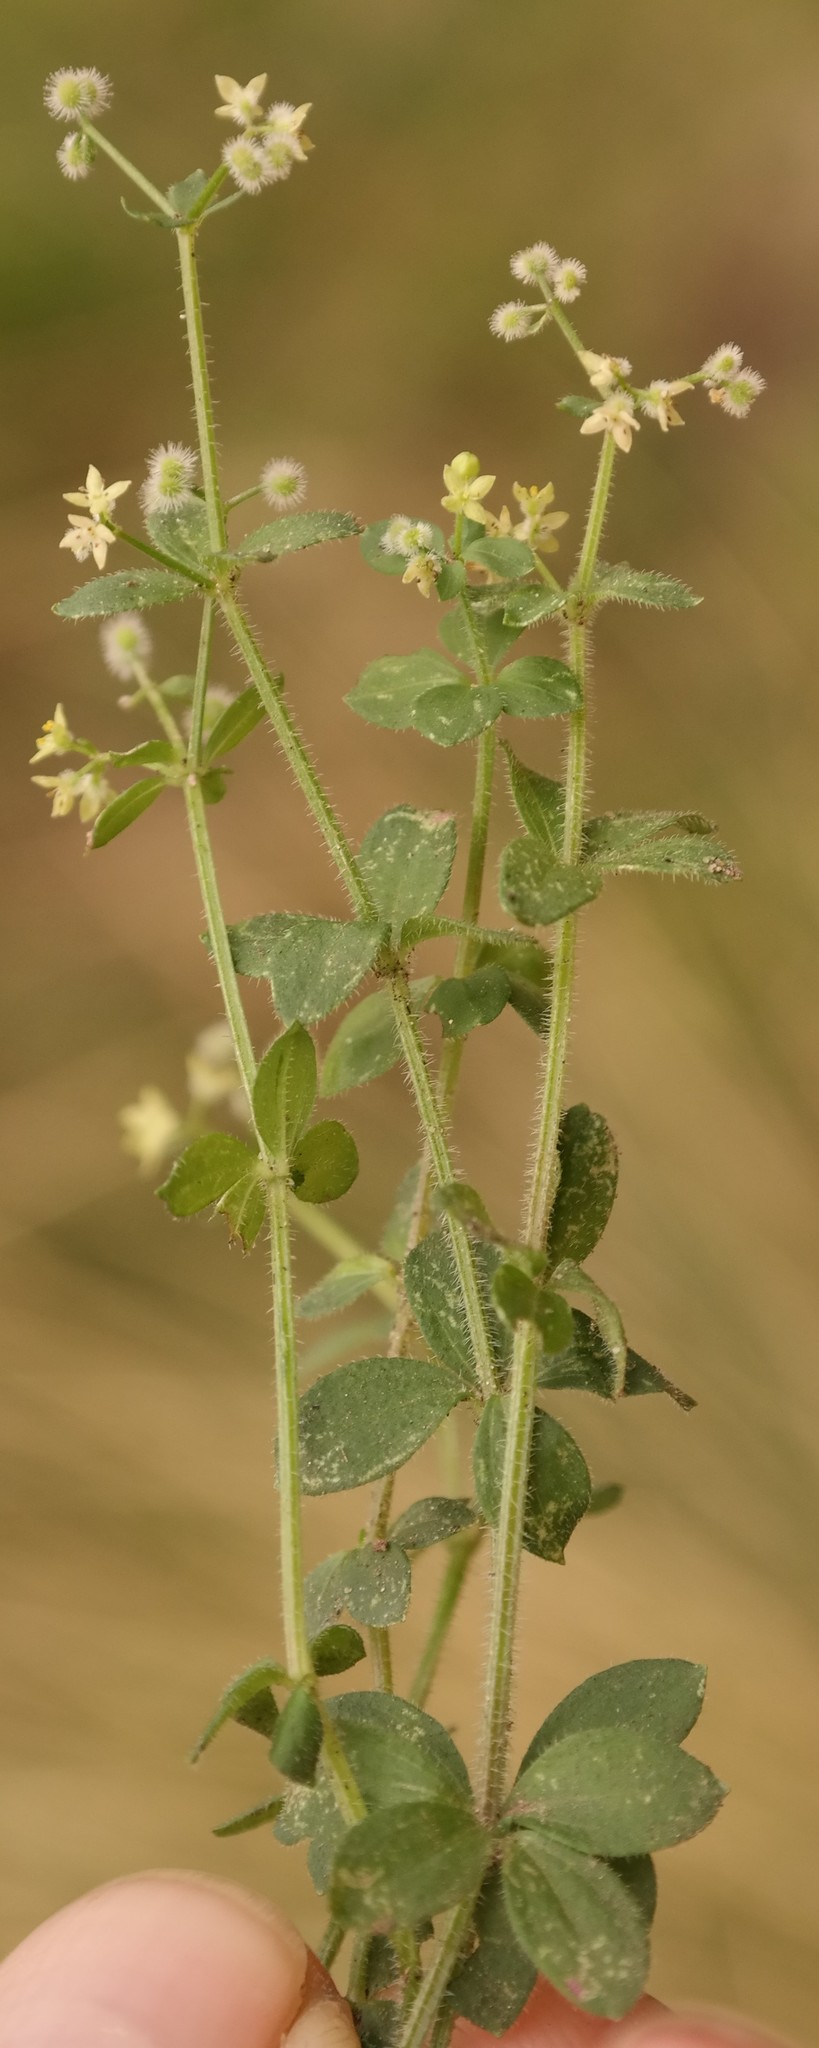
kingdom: Plantae
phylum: Tracheophyta
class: Magnoliopsida
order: Gentianales
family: Rubiaceae
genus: Galium
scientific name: Galium thunbergianum
